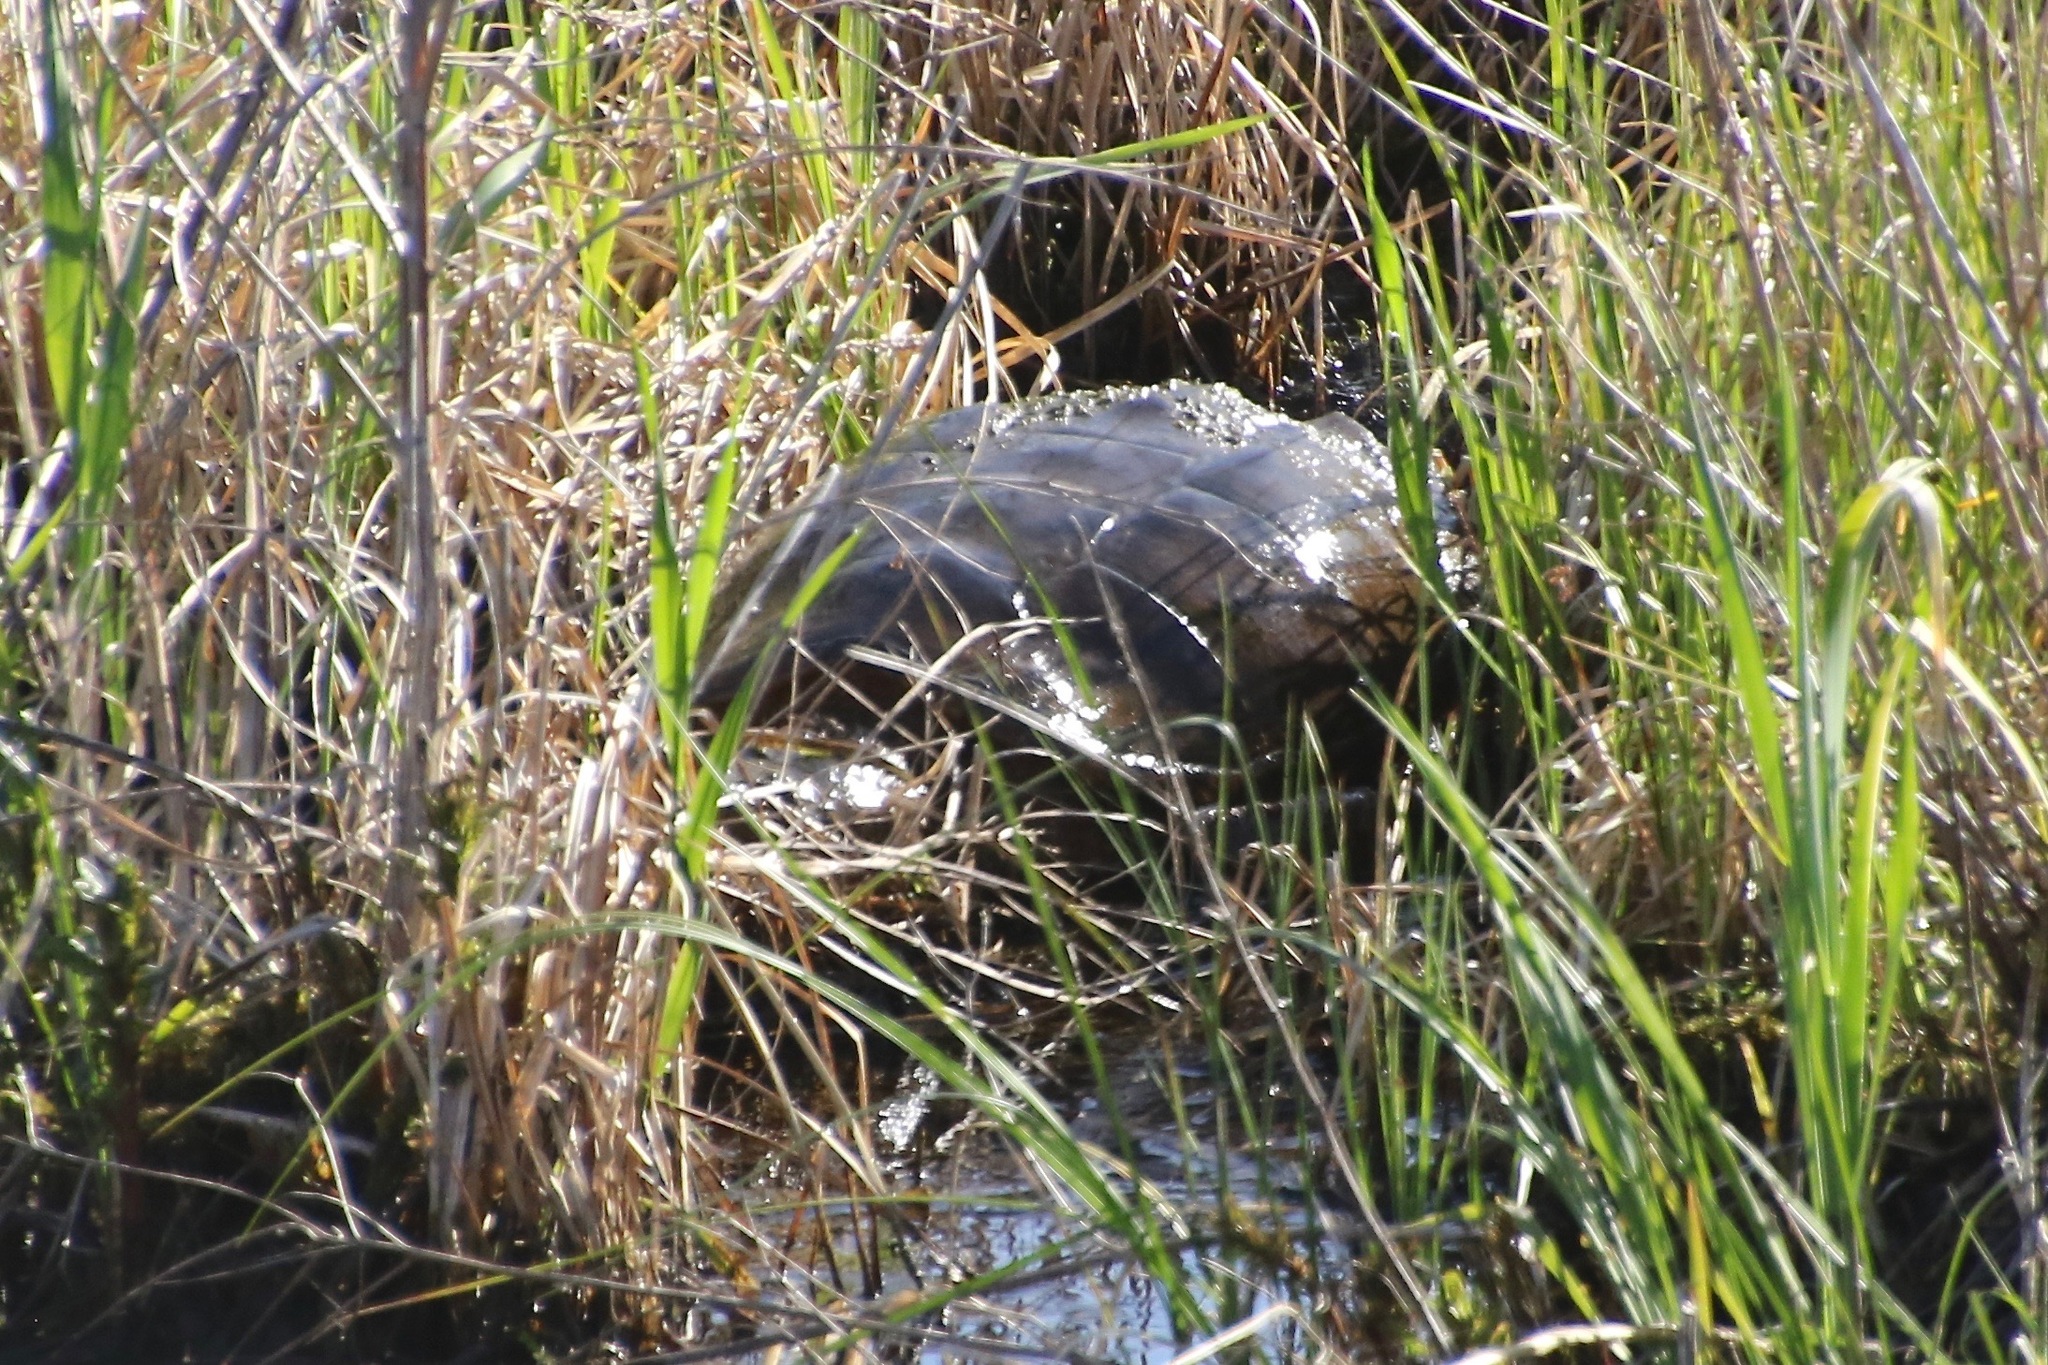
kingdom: Animalia
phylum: Chordata
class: Testudines
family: Chelydridae
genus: Chelydra
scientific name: Chelydra serpentina
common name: Common snapping turtle
